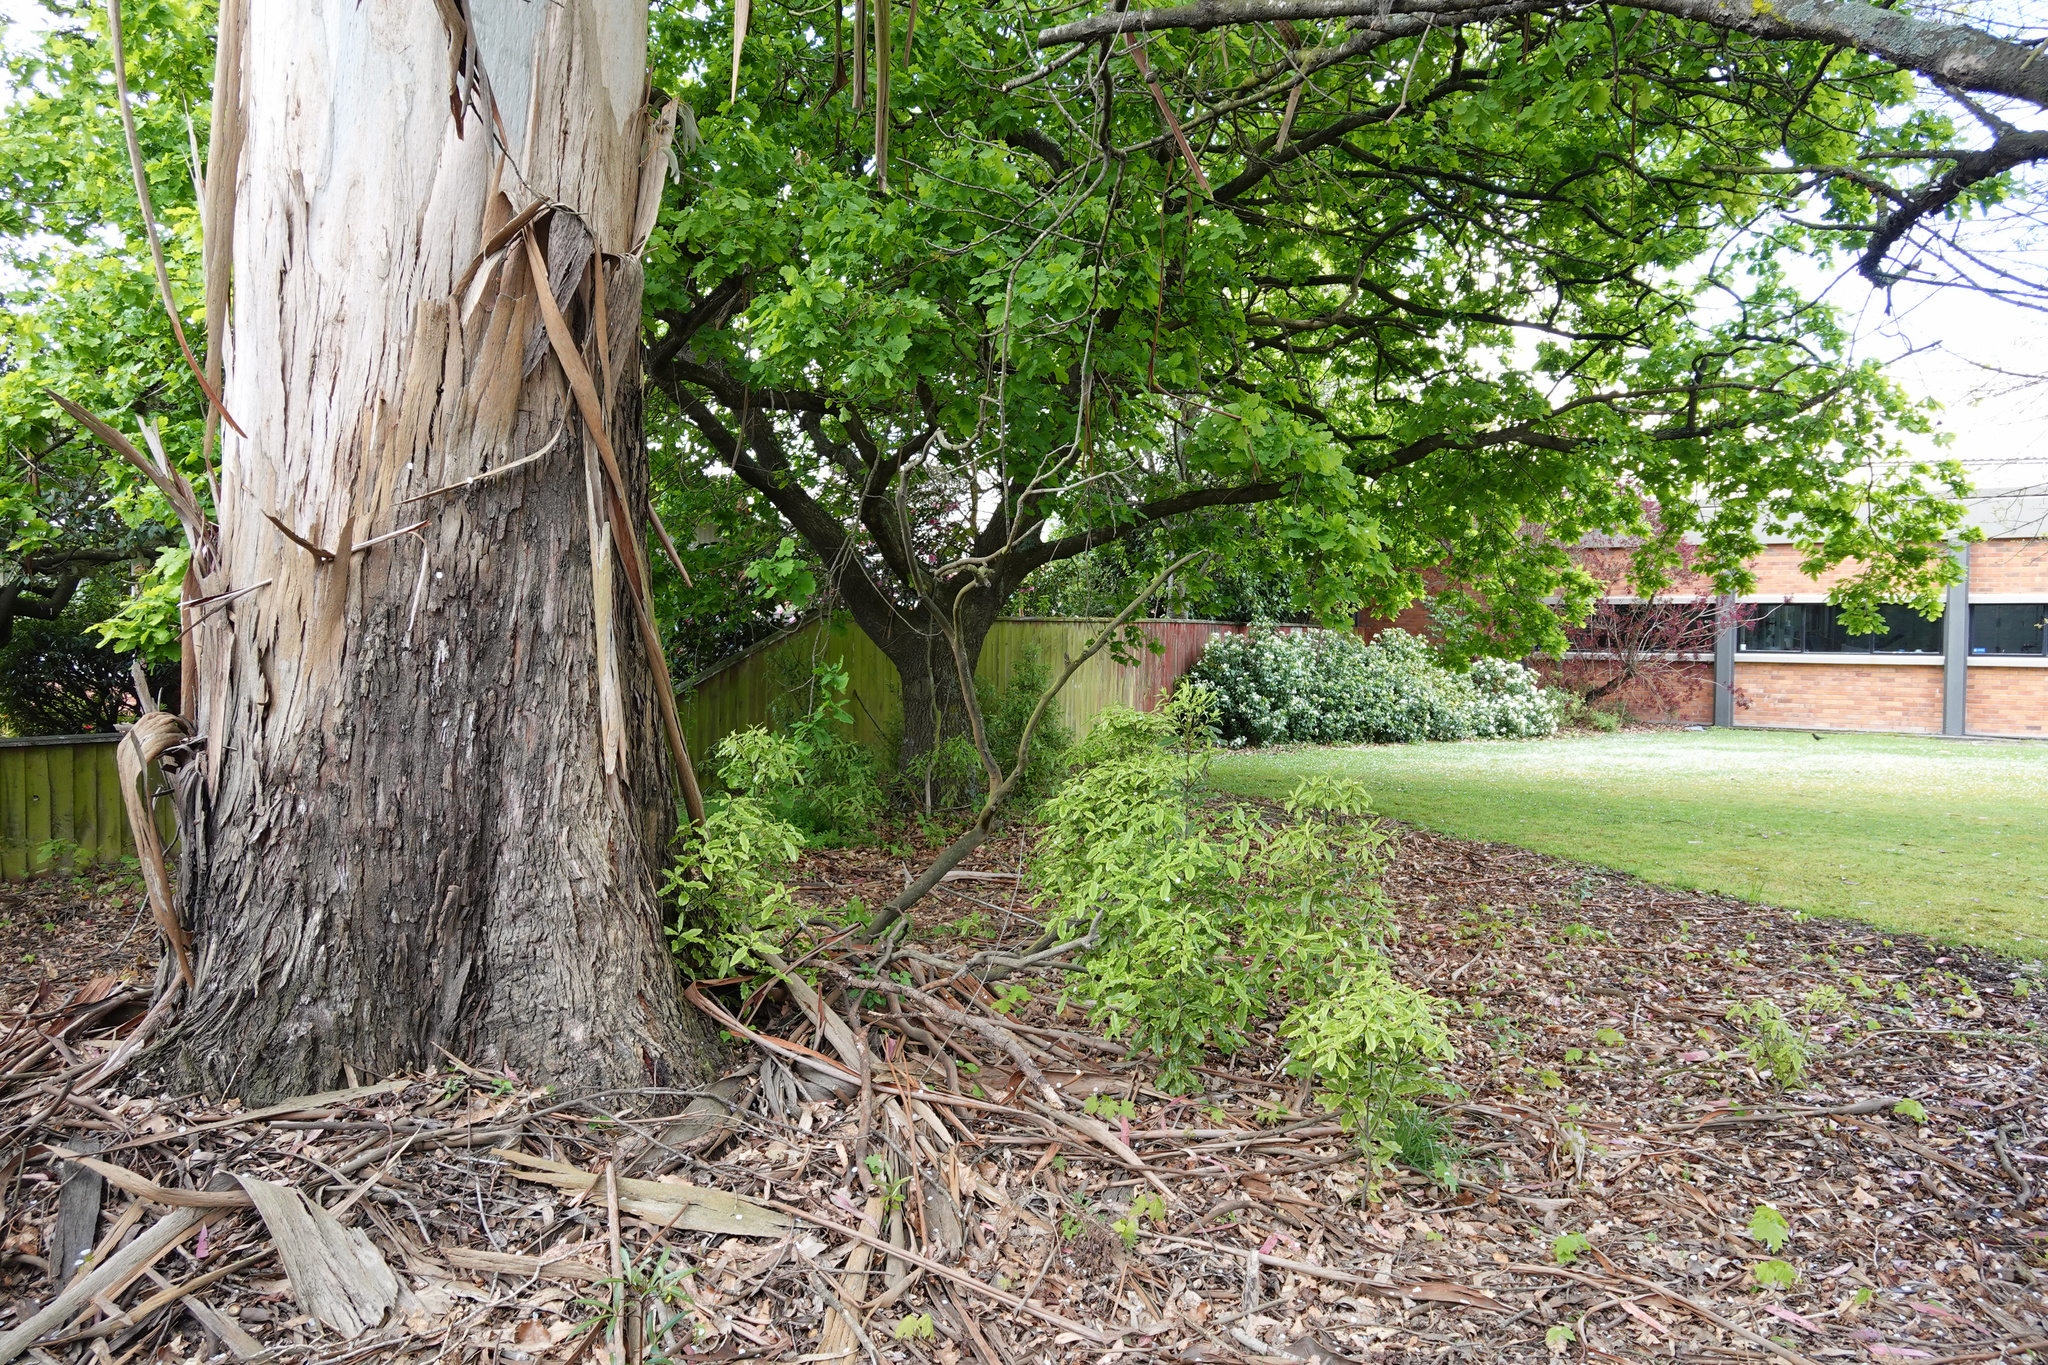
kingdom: Plantae
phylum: Tracheophyta
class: Magnoliopsida
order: Apiales
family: Pittosporaceae
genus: Pittosporum
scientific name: Pittosporum eugenioides
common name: Lemonwood
